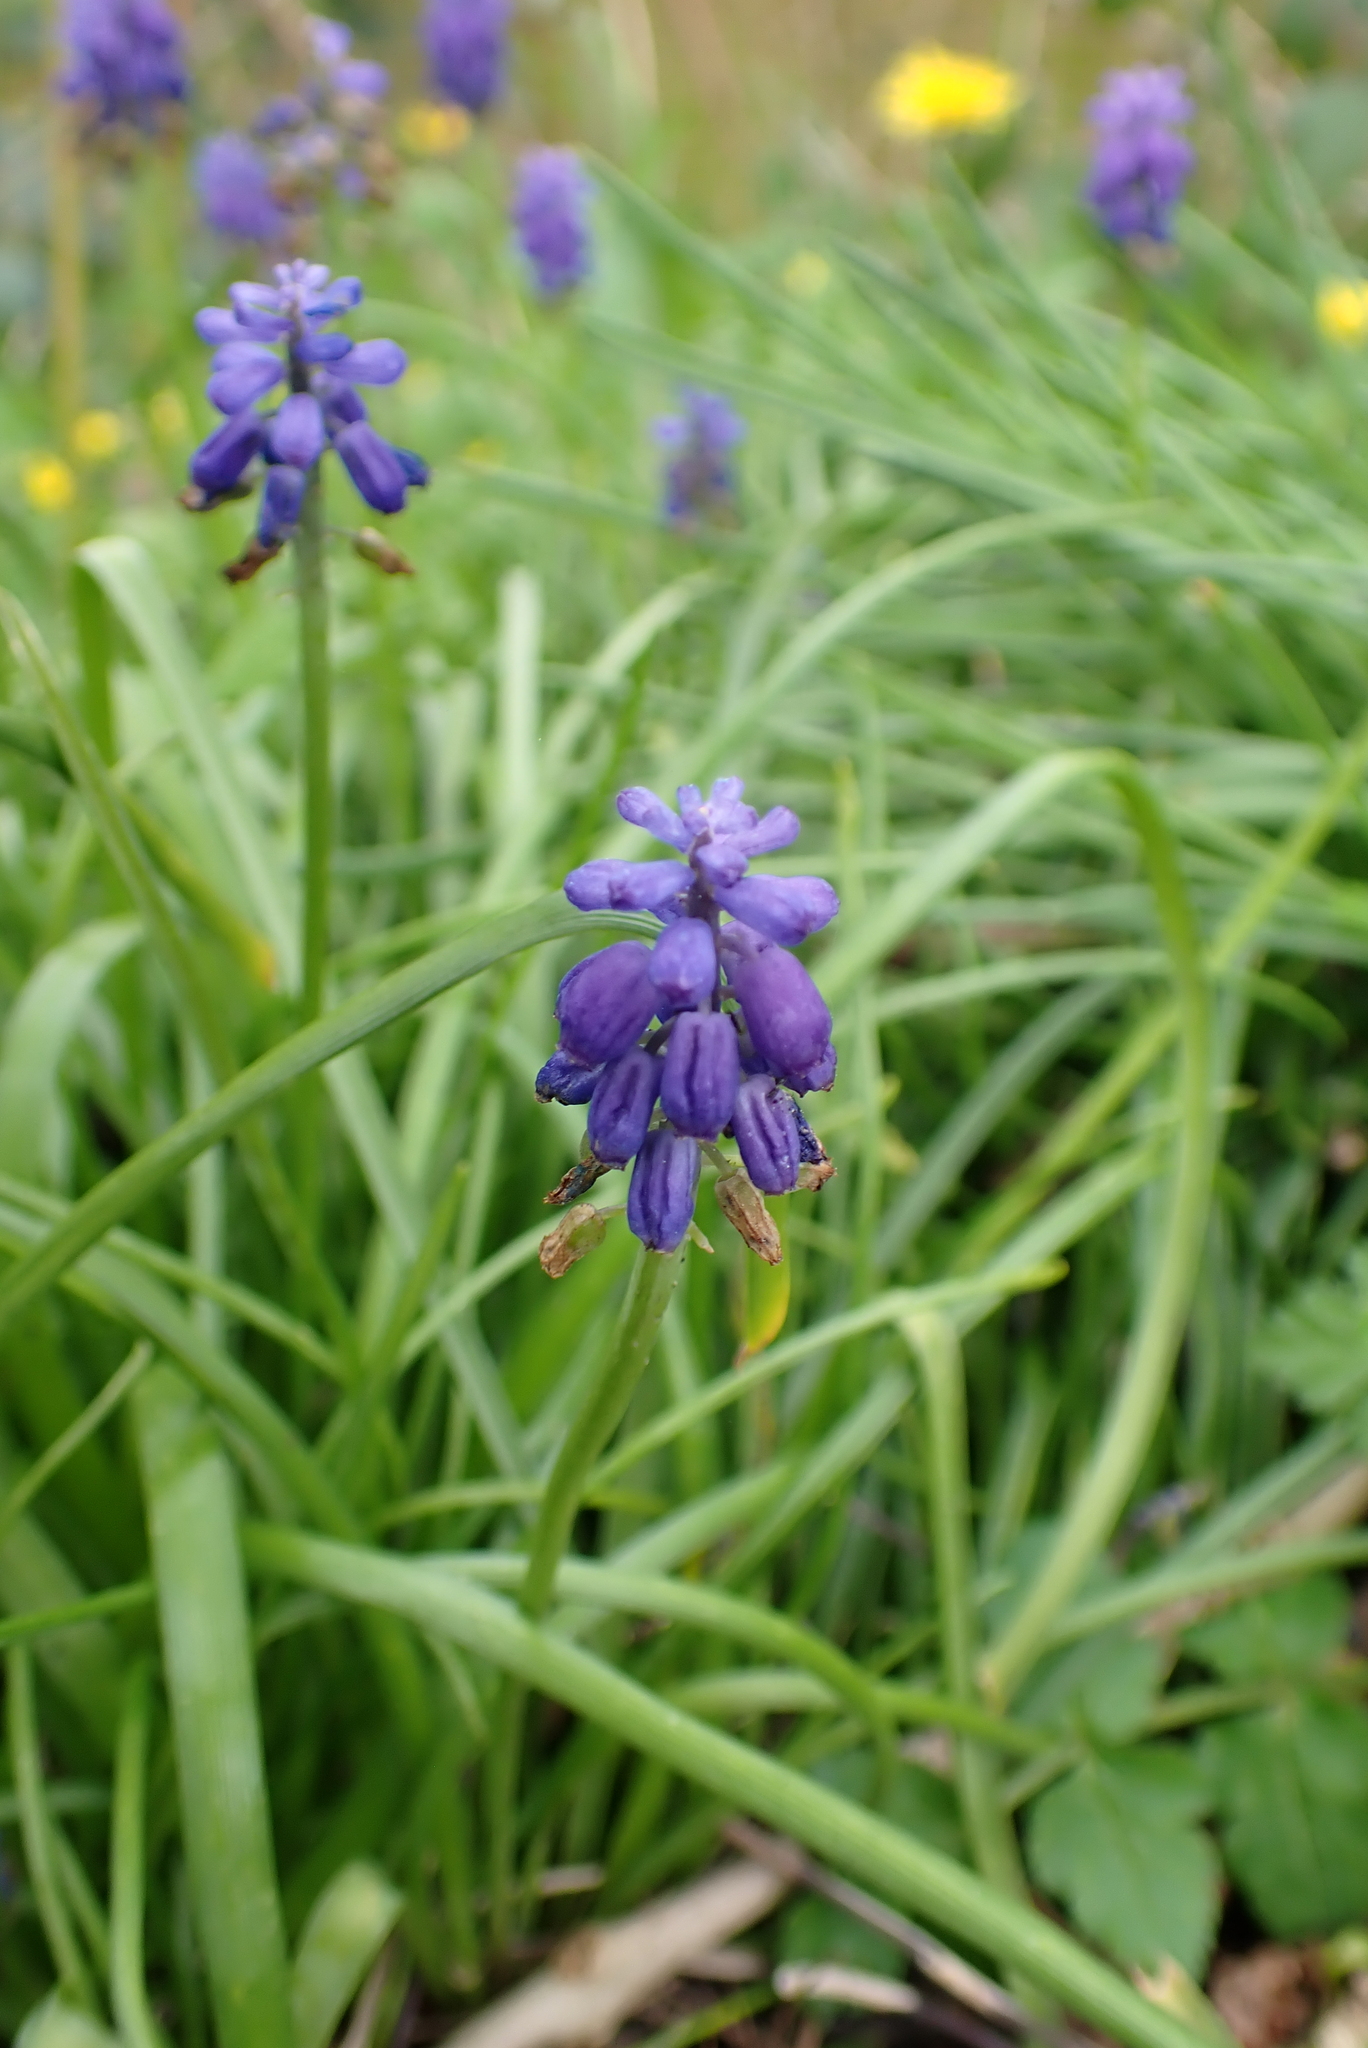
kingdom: Plantae
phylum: Tracheophyta
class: Liliopsida
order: Asparagales
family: Asparagaceae
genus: Muscari
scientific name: Muscari armeniacum
